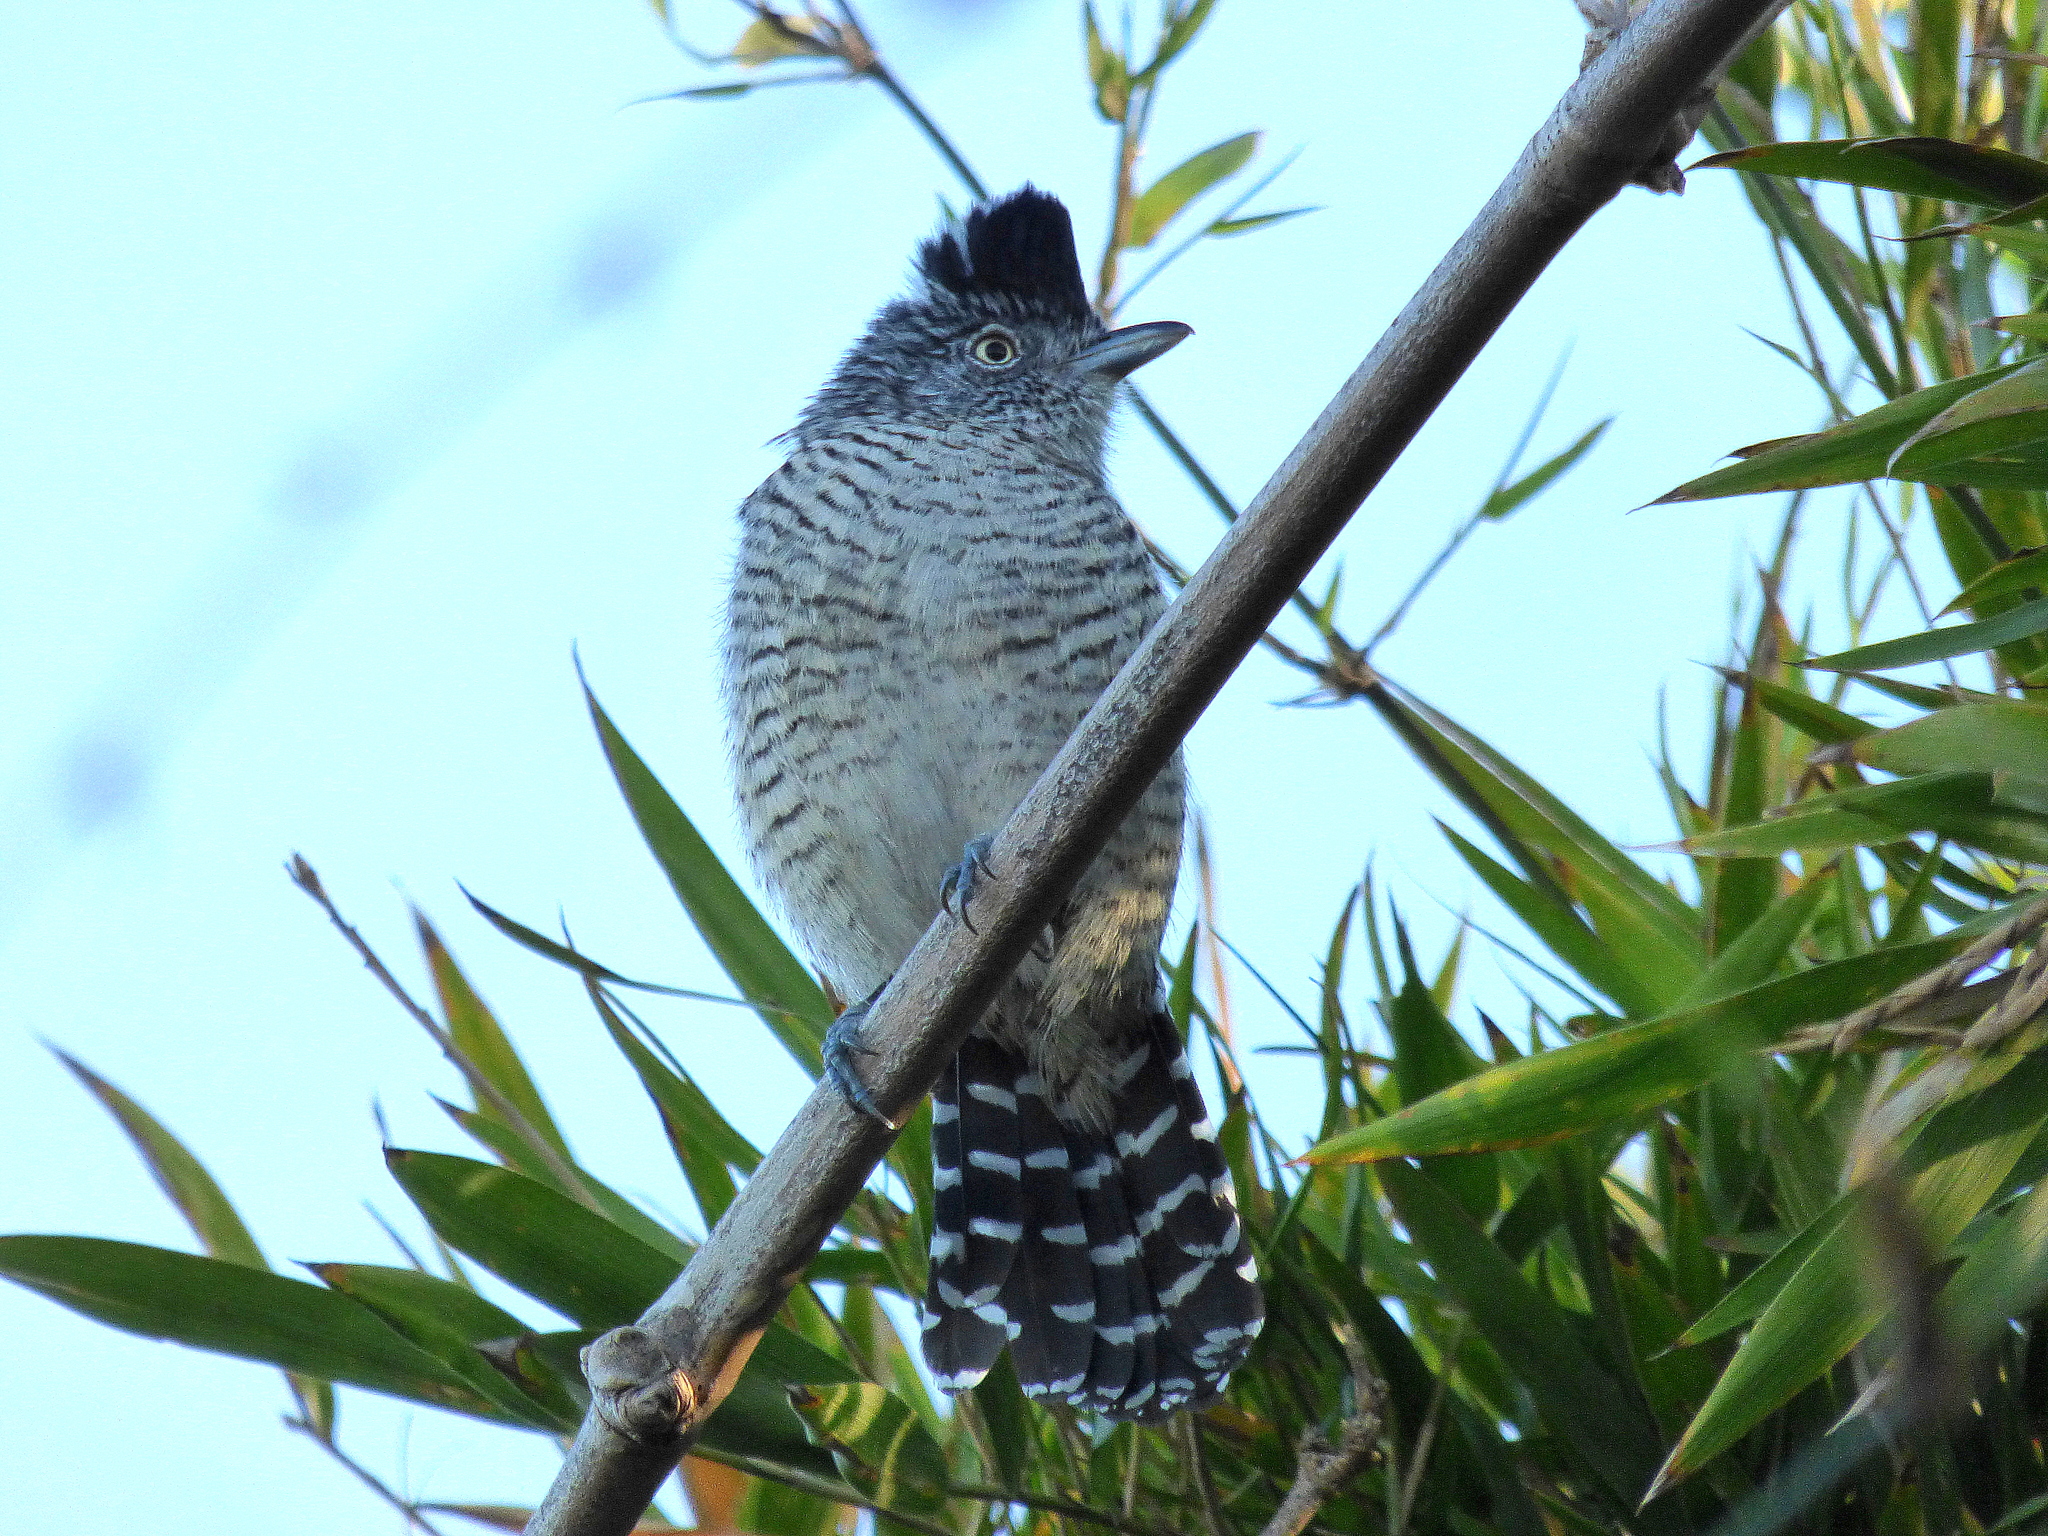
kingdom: Animalia
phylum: Chordata
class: Aves
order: Passeriformes
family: Thamnophilidae
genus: Thamnophilus
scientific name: Thamnophilus doliatus
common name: Barred antshrike
